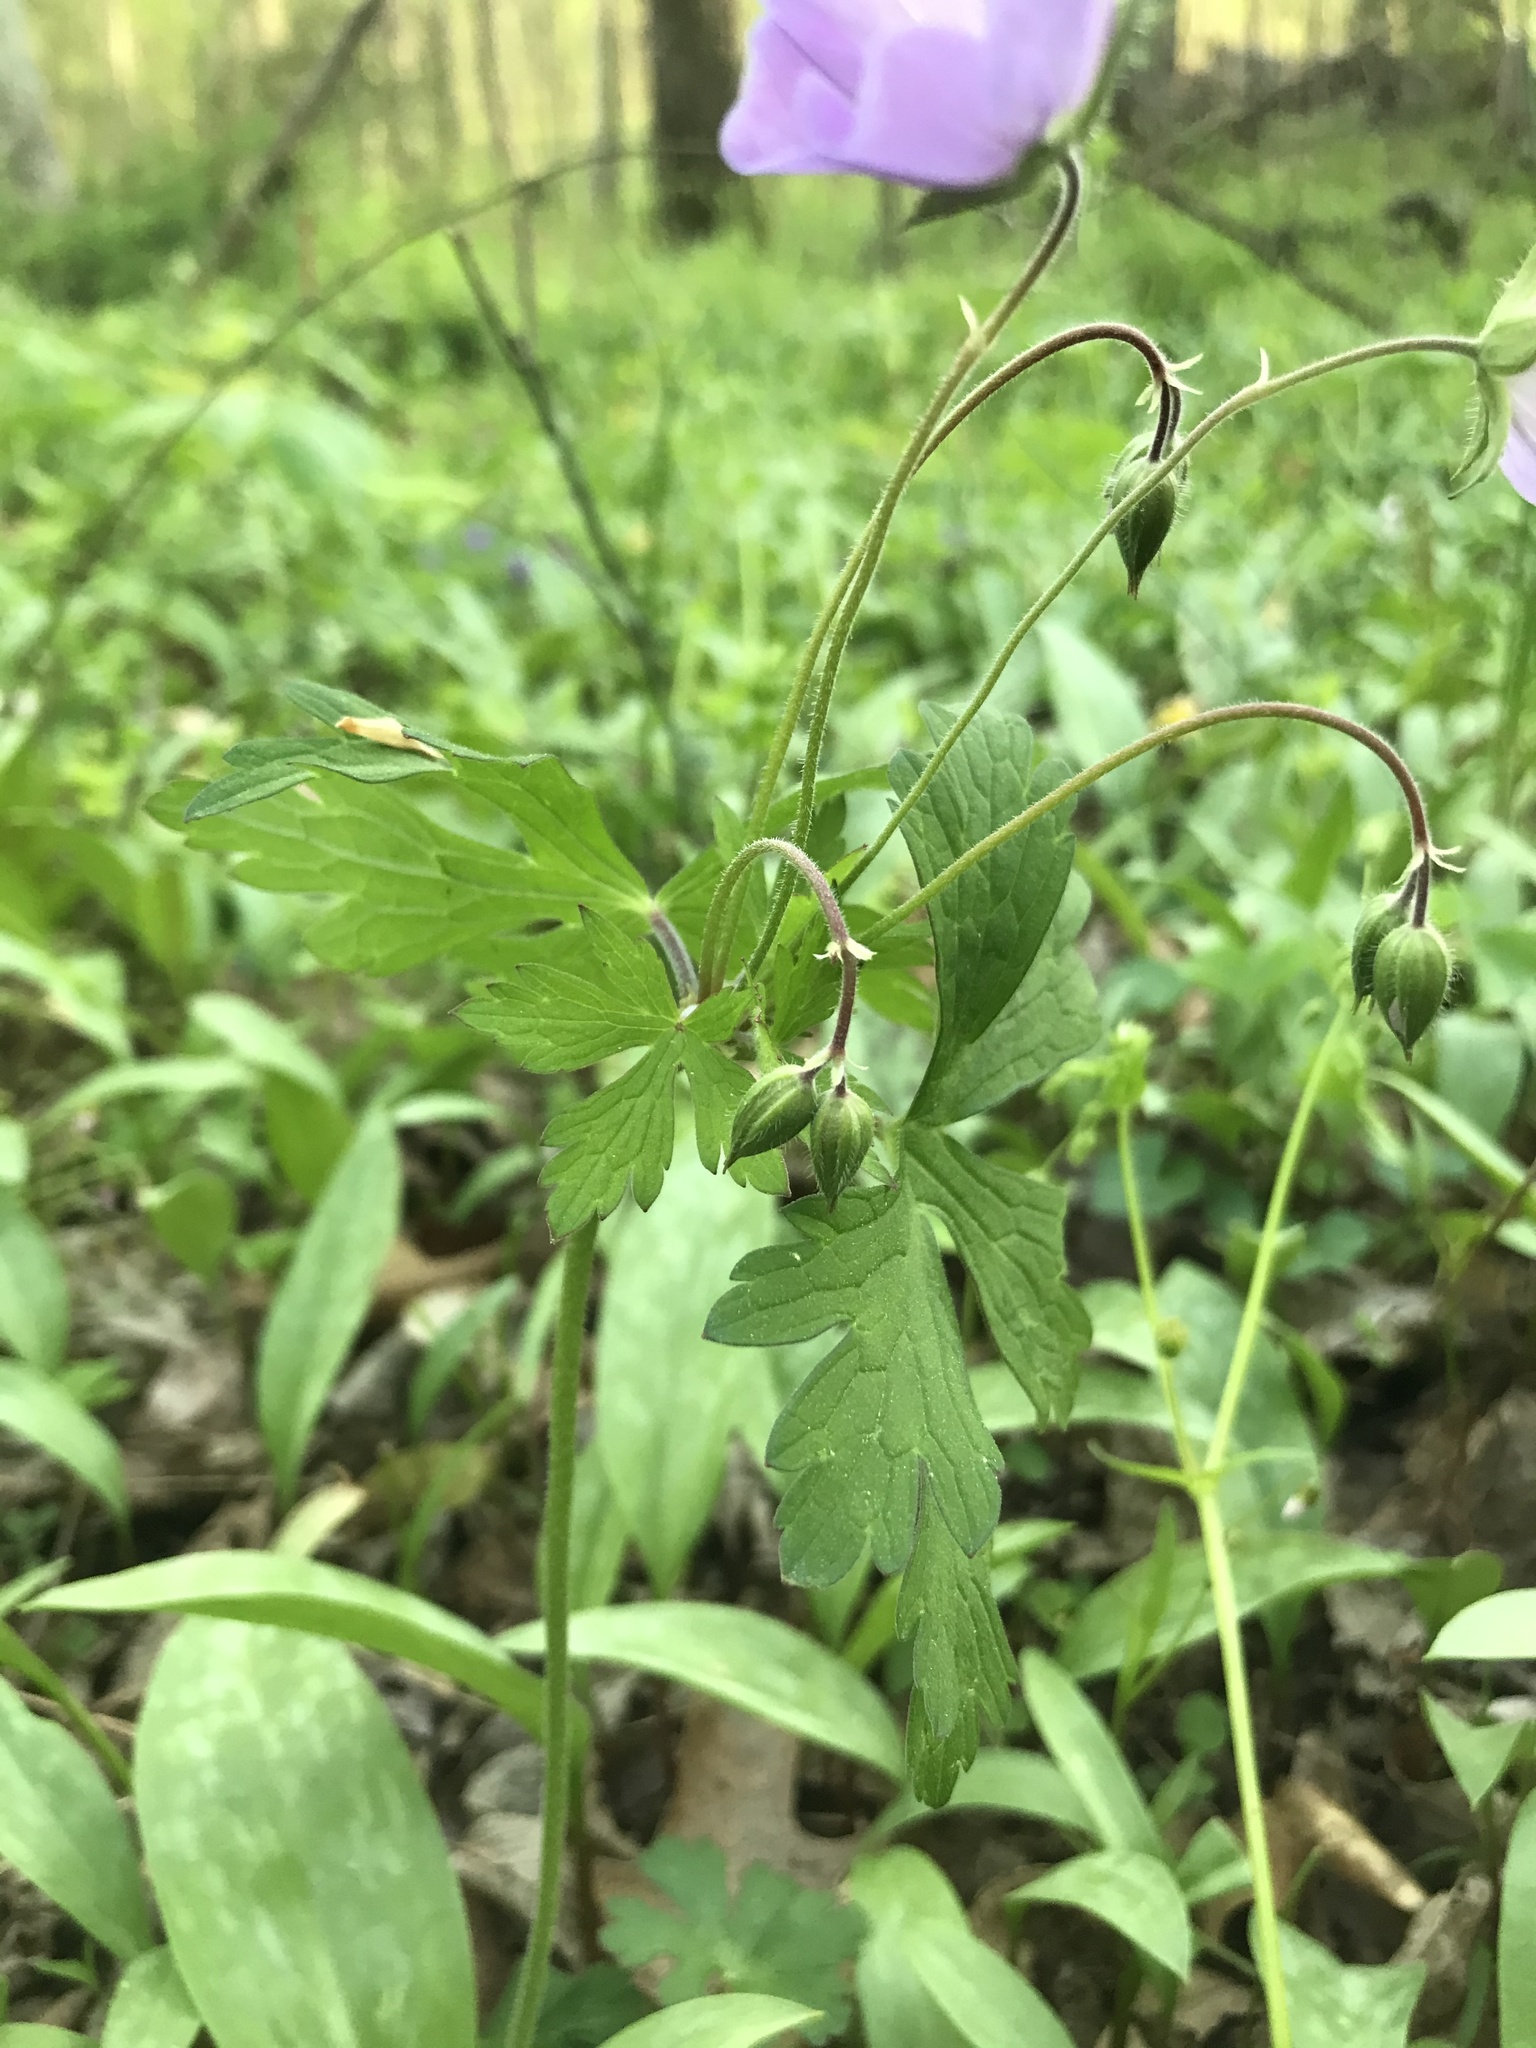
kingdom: Plantae
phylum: Tracheophyta
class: Magnoliopsida
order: Geraniales
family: Geraniaceae
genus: Geranium
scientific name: Geranium maculatum
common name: Spotted geranium
